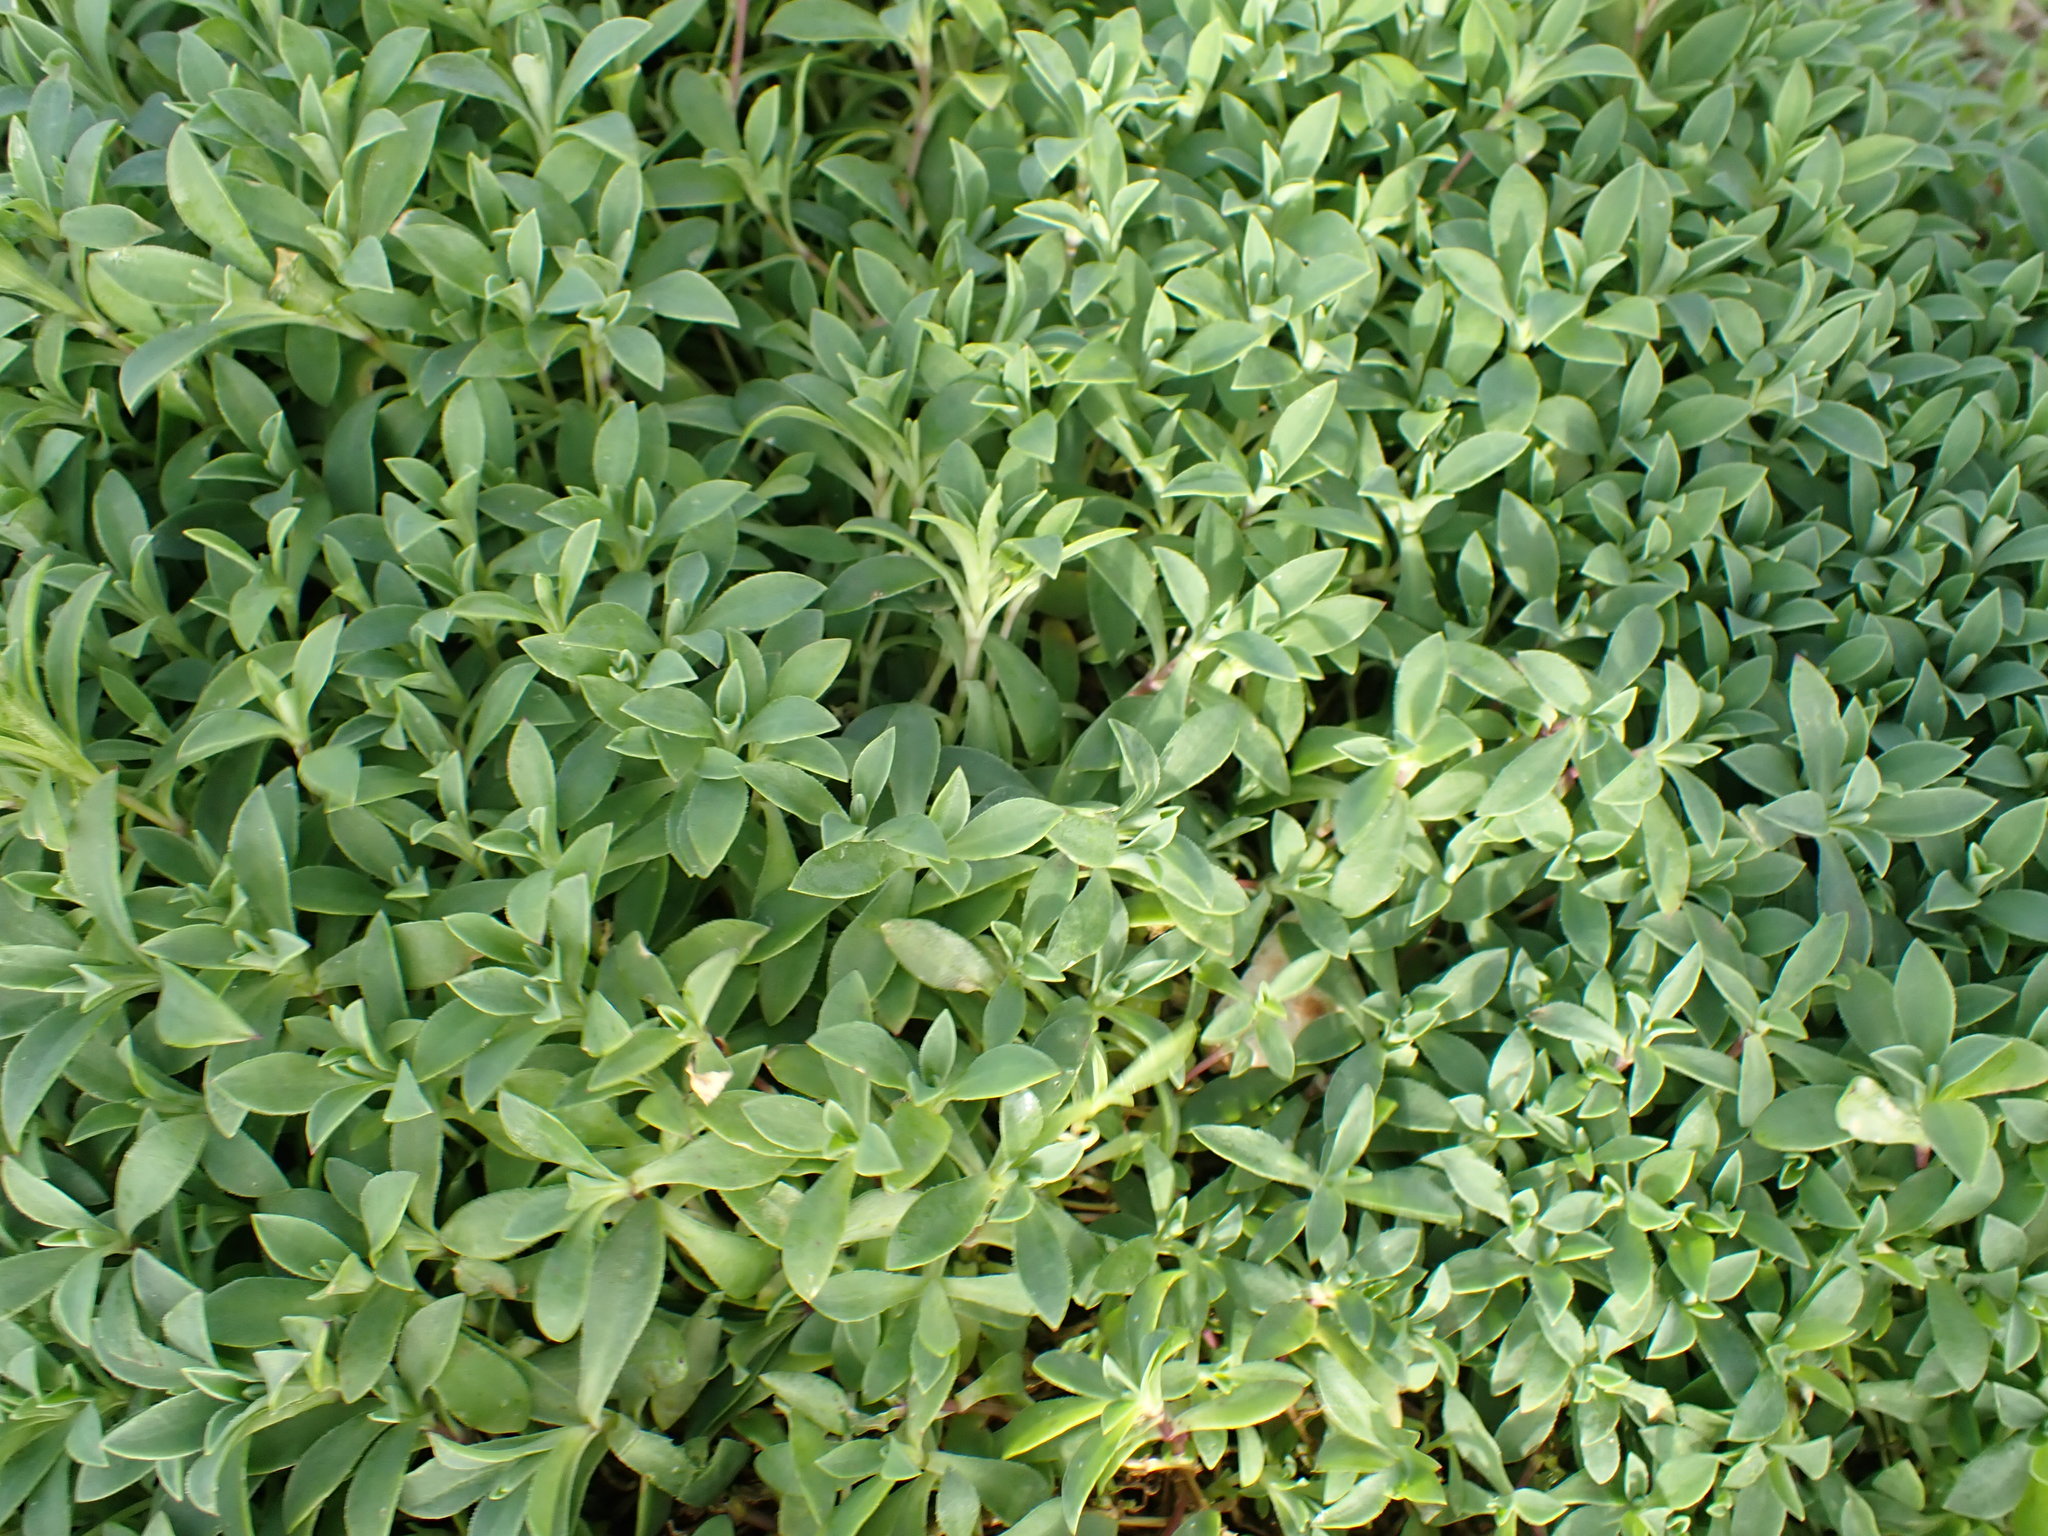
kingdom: Plantae
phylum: Tracheophyta
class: Magnoliopsida
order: Caryophyllales
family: Caryophyllaceae
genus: Silene
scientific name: Silene uniflora
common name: Sea campion
